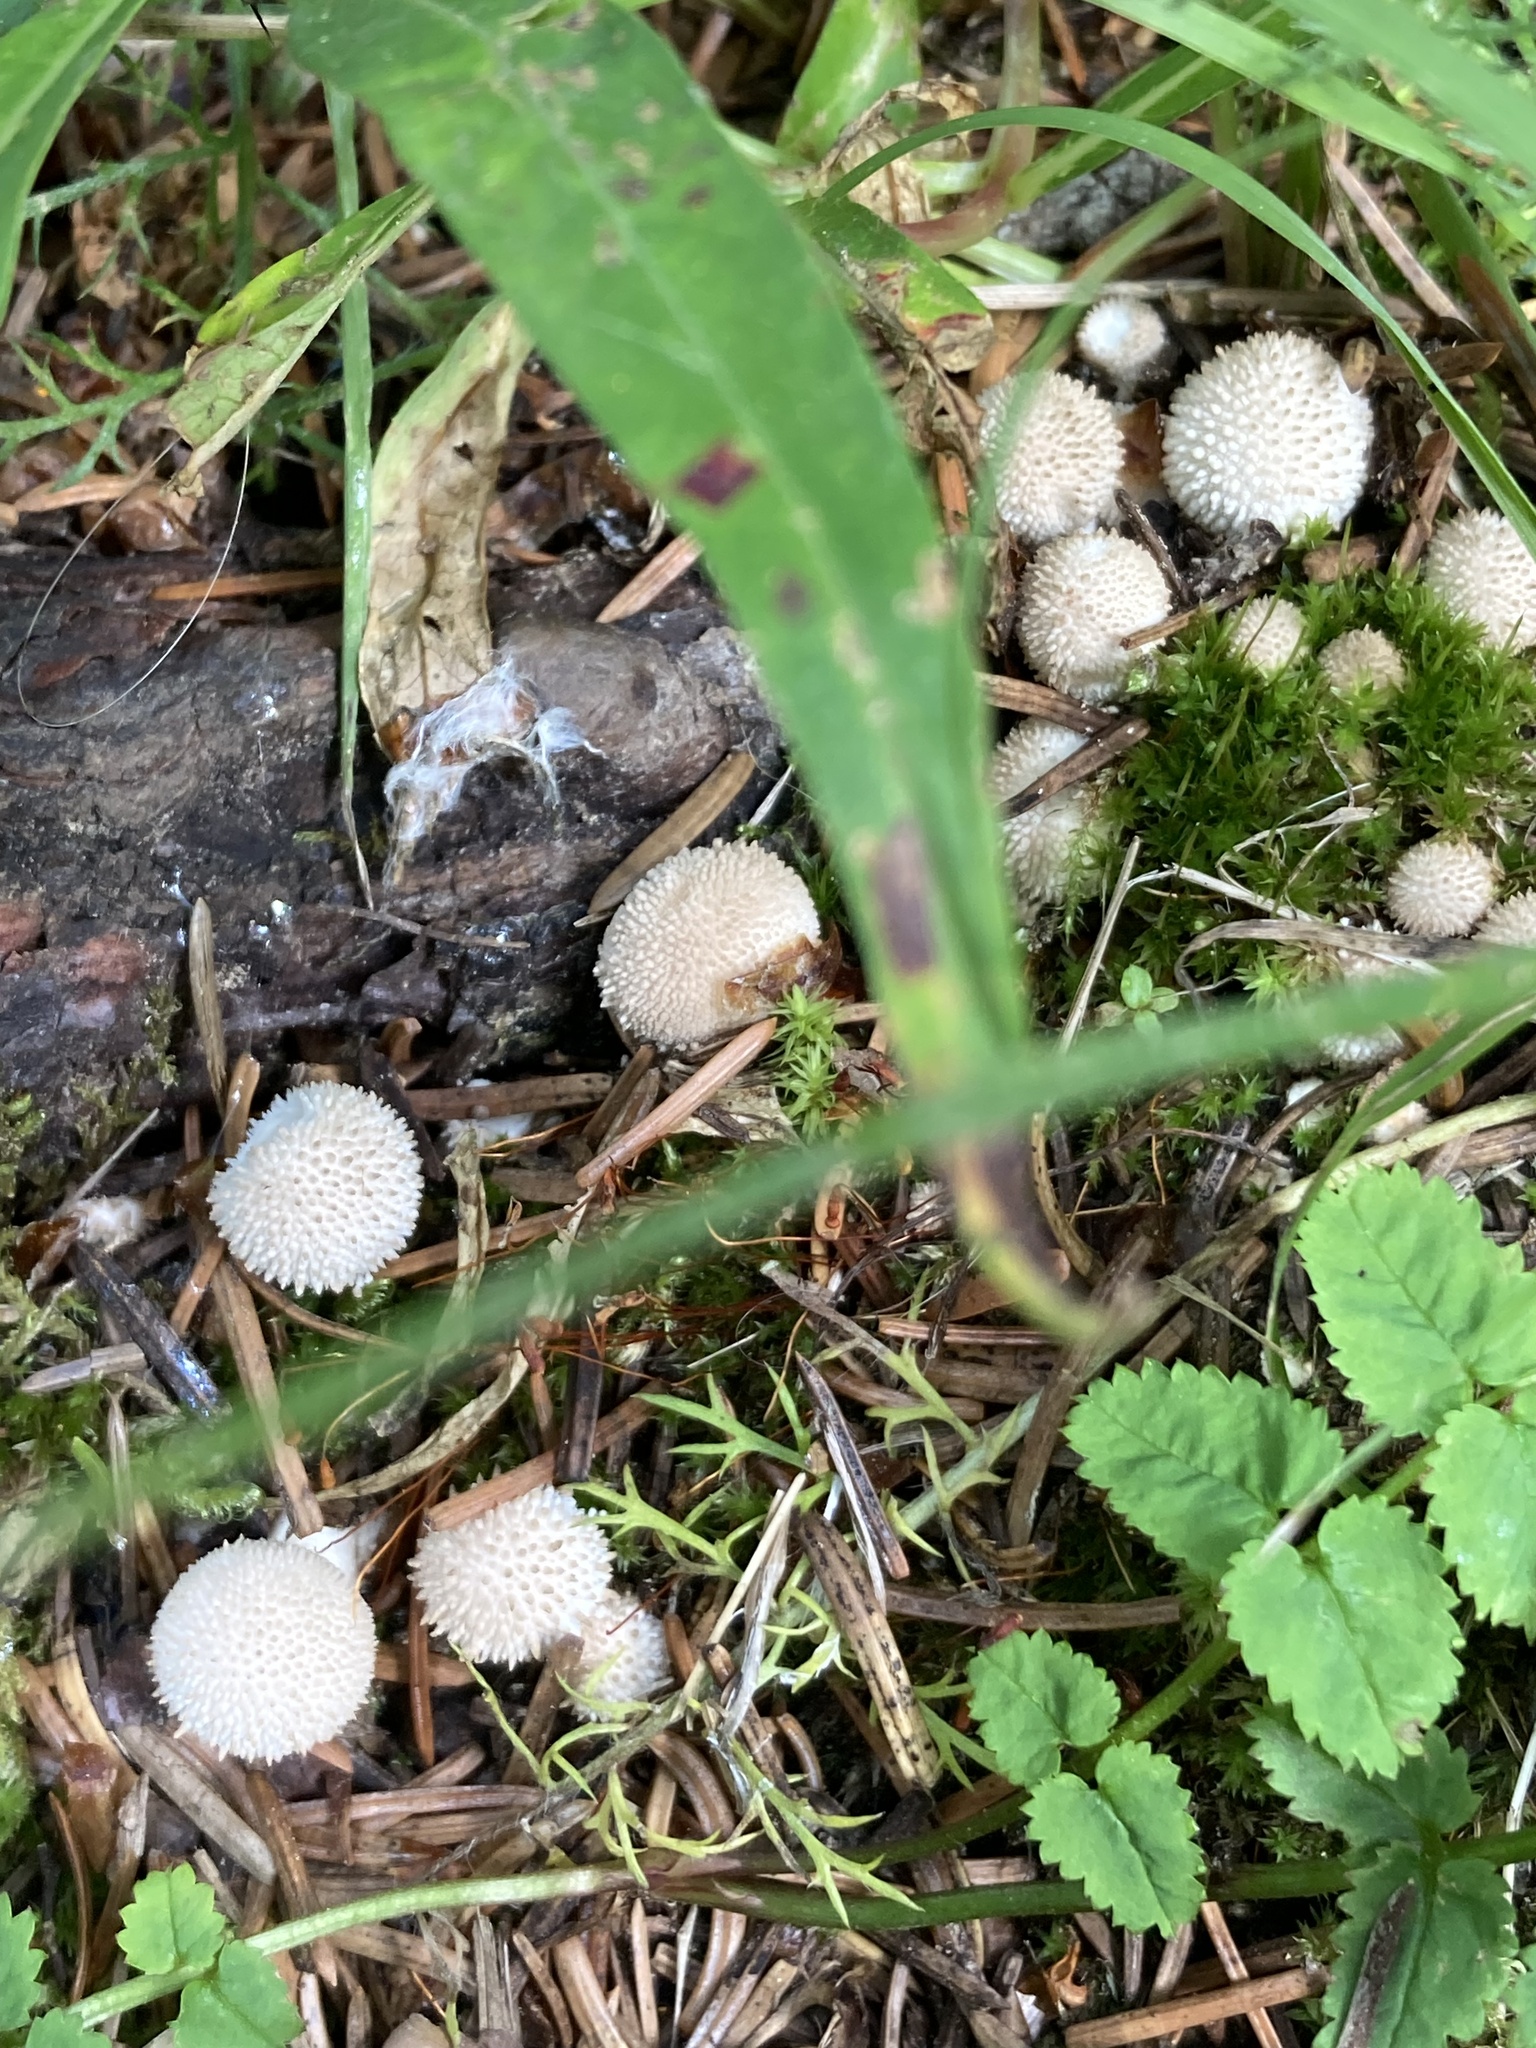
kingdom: Fungi
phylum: Basidiomycota
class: Agaricomycetes
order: Agaricales
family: Lycoperdaceae
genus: Lycoperdon
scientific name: Lycoperdon perlatum
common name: Common puffball
